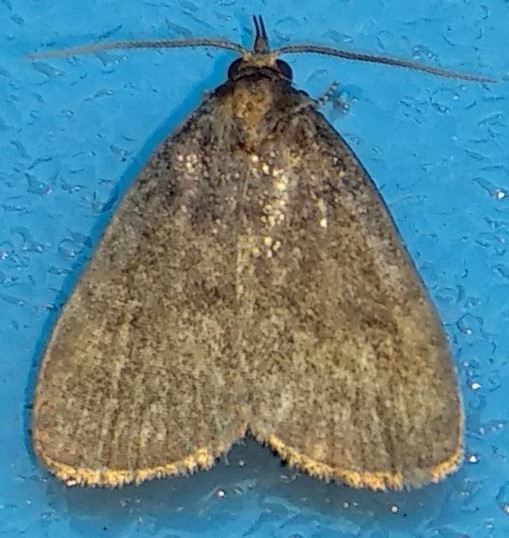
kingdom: Animalia
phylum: Arthropoda
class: Insecta
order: Lepidoptera
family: Erebidae
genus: Idia
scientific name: Idia rotundalis
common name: Rotund idia moth
